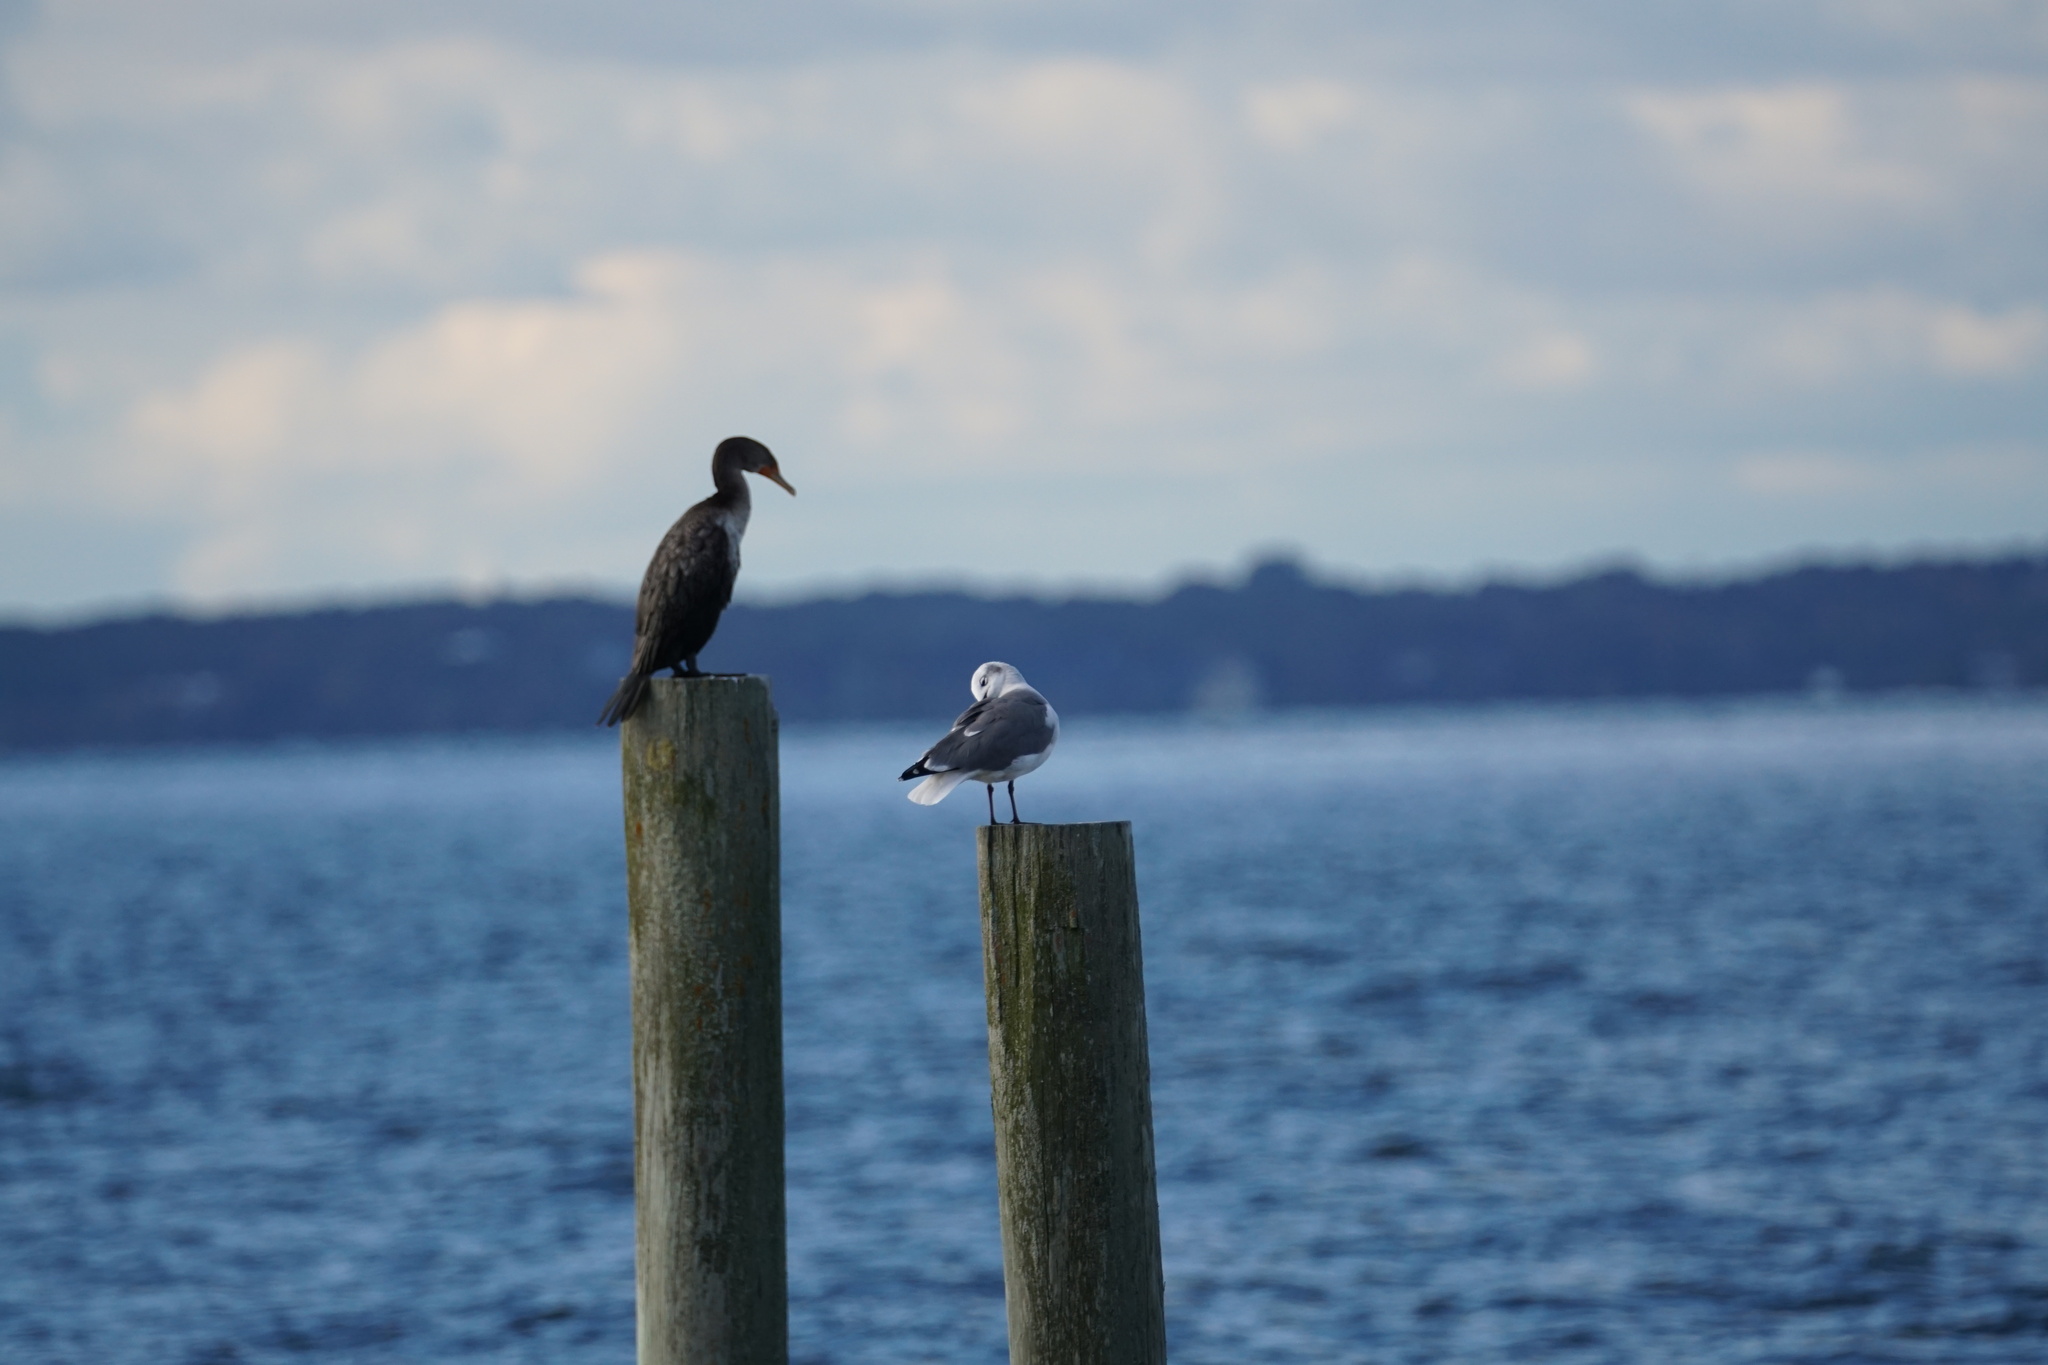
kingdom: Animalia
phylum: Chordata
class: Aves
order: Suliformes
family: Phalacrocoracidae
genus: Phalacrocorax
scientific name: Phalacrocorax auritus
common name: Double-crested cormorant
